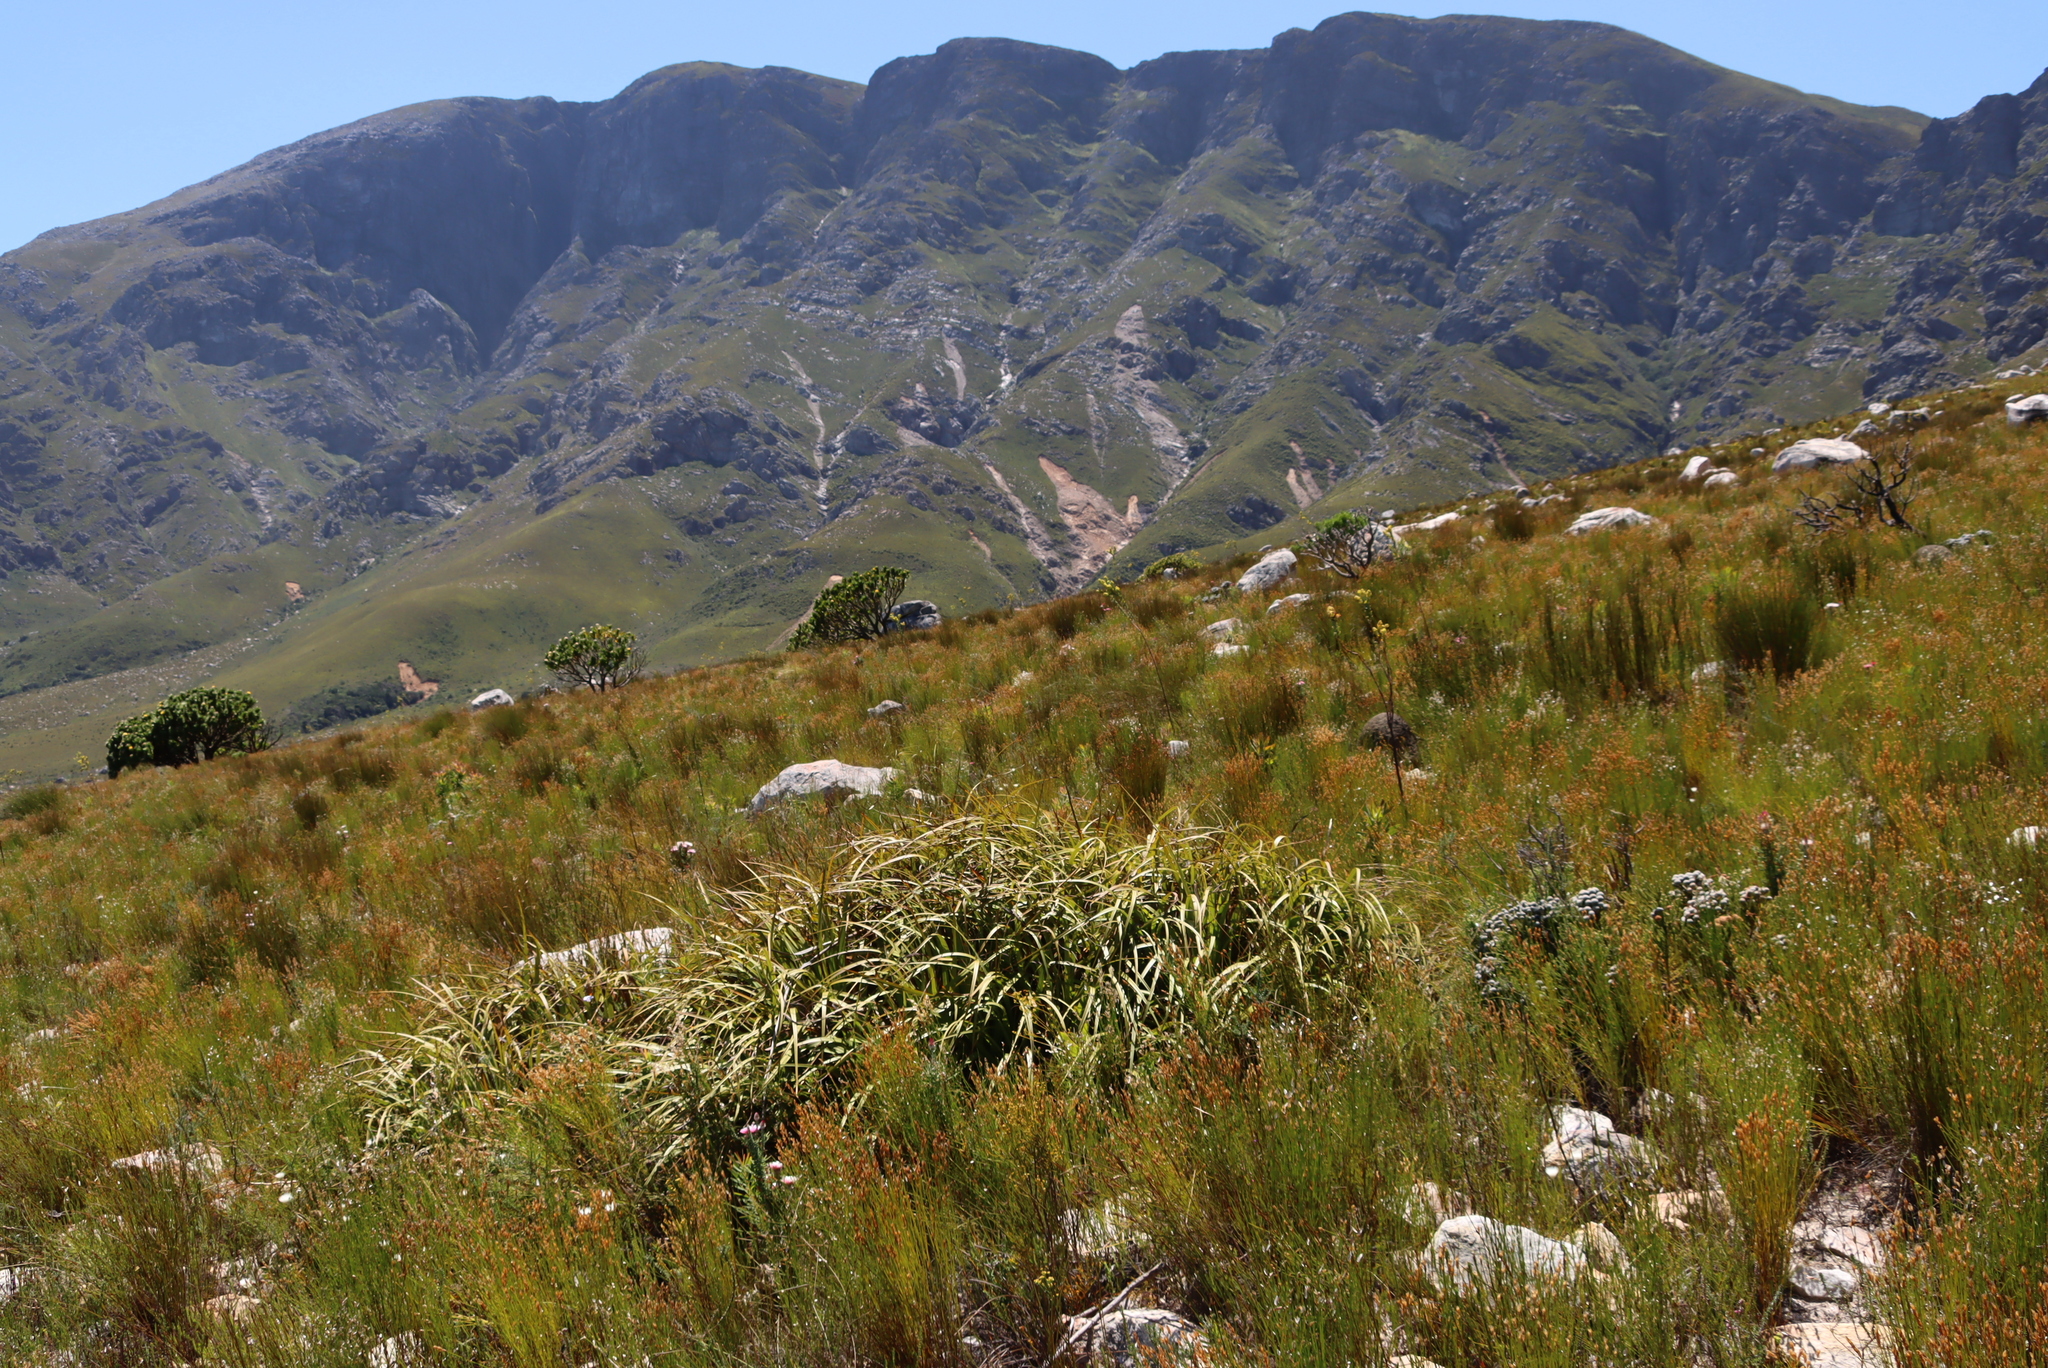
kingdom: Plantae
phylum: Tracheophyta
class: Liliopsida
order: Poales
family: Cyperaceae
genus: Tetraria
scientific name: Tetraria thermalis
